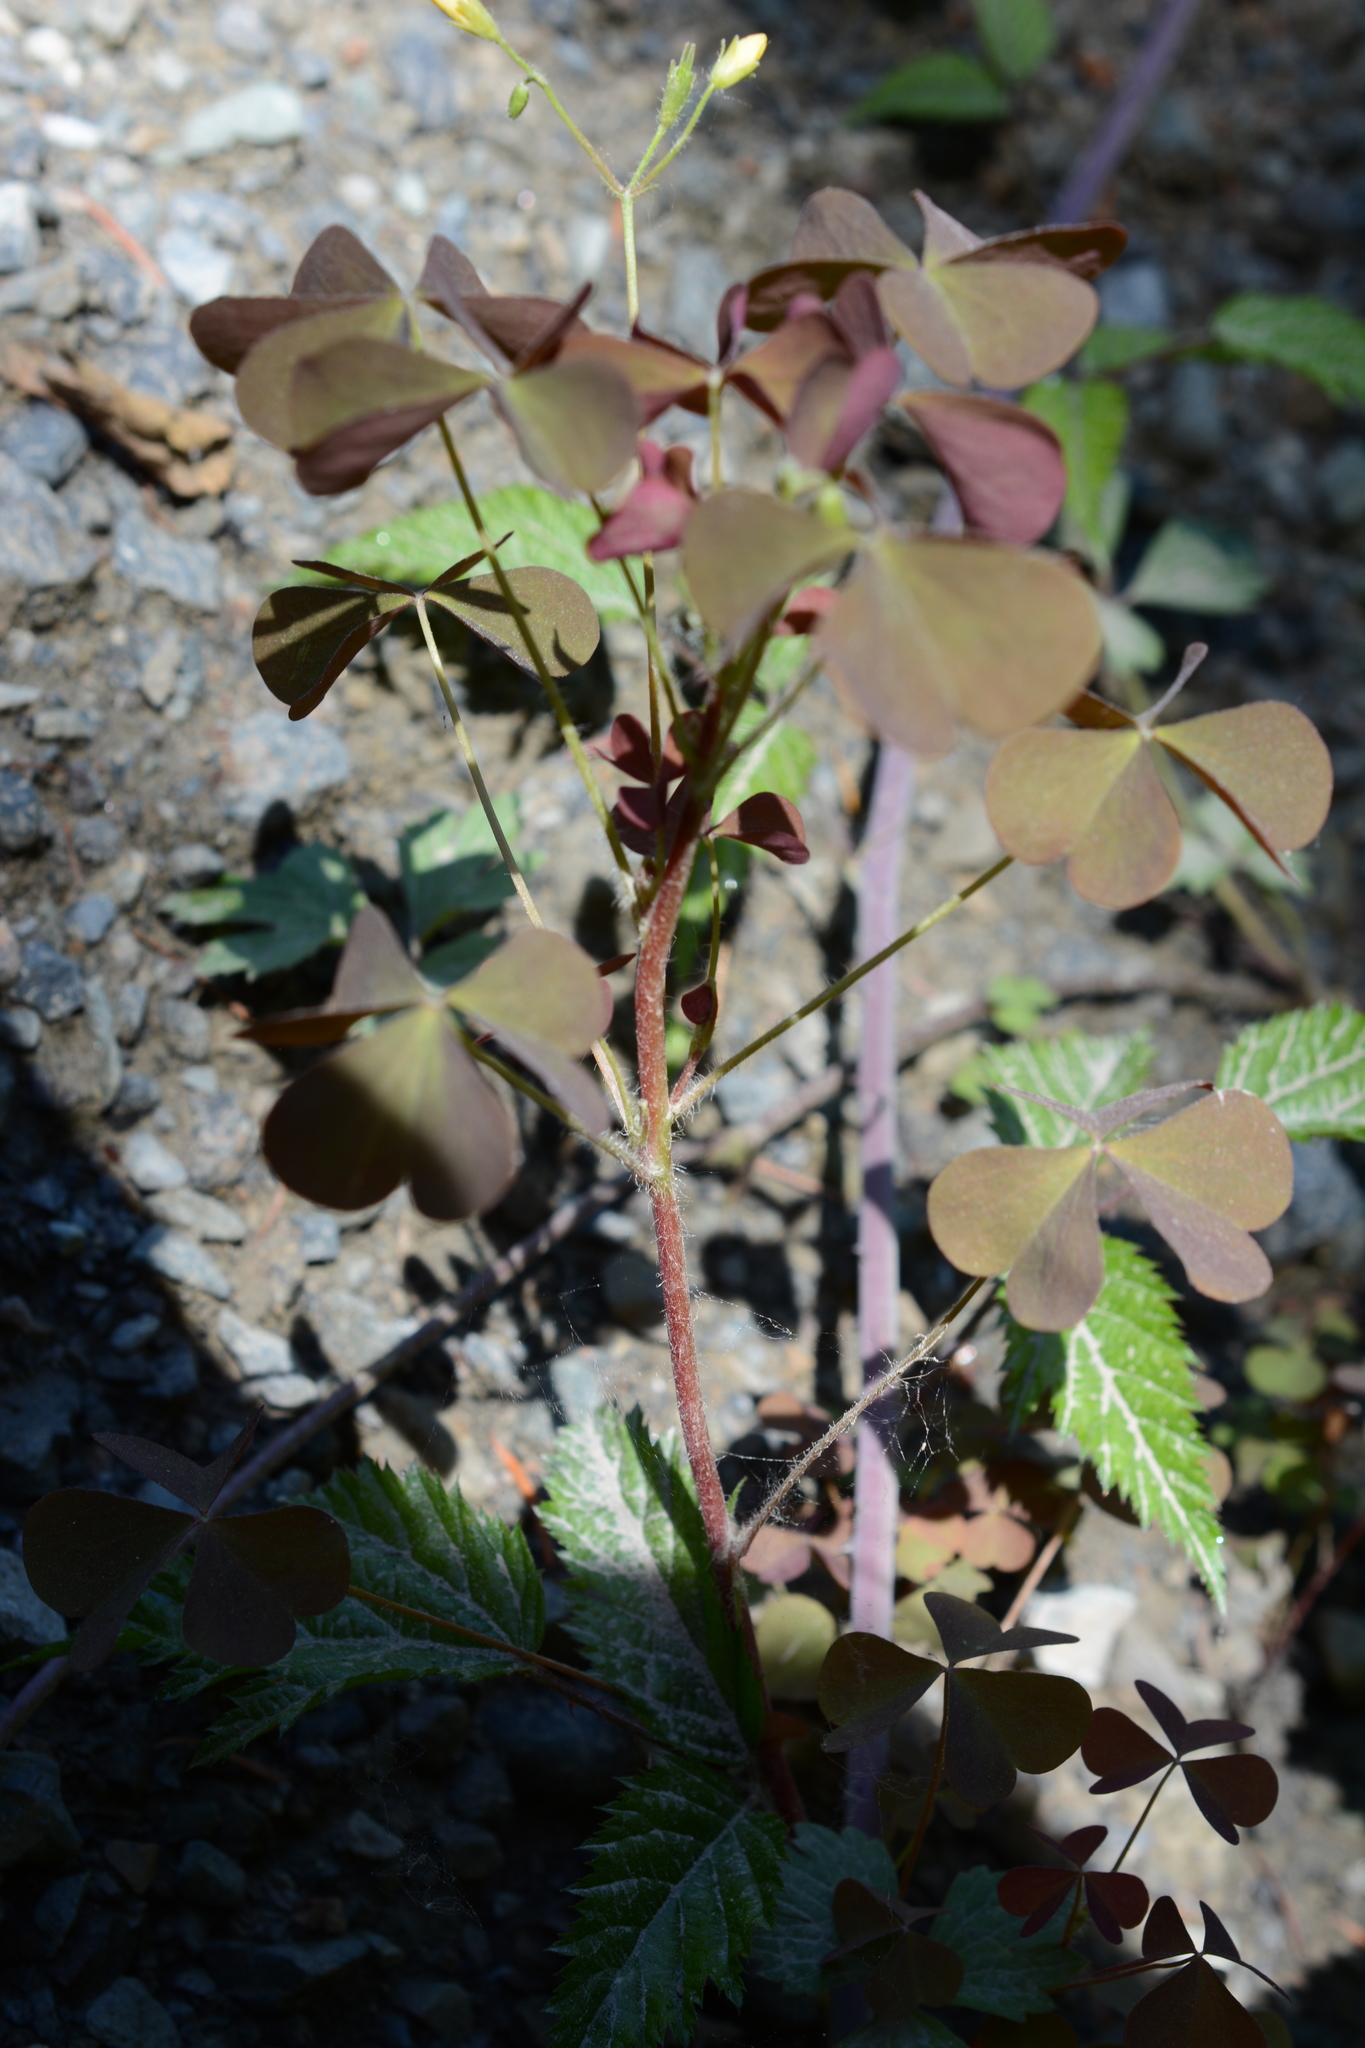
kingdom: Plantae
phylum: Tracheophyta
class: Magnoliopsida
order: Oxalidales
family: Oxalidaceae
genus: Oxalis
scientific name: Oxalis stricta
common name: Upright yellow-sorrel
